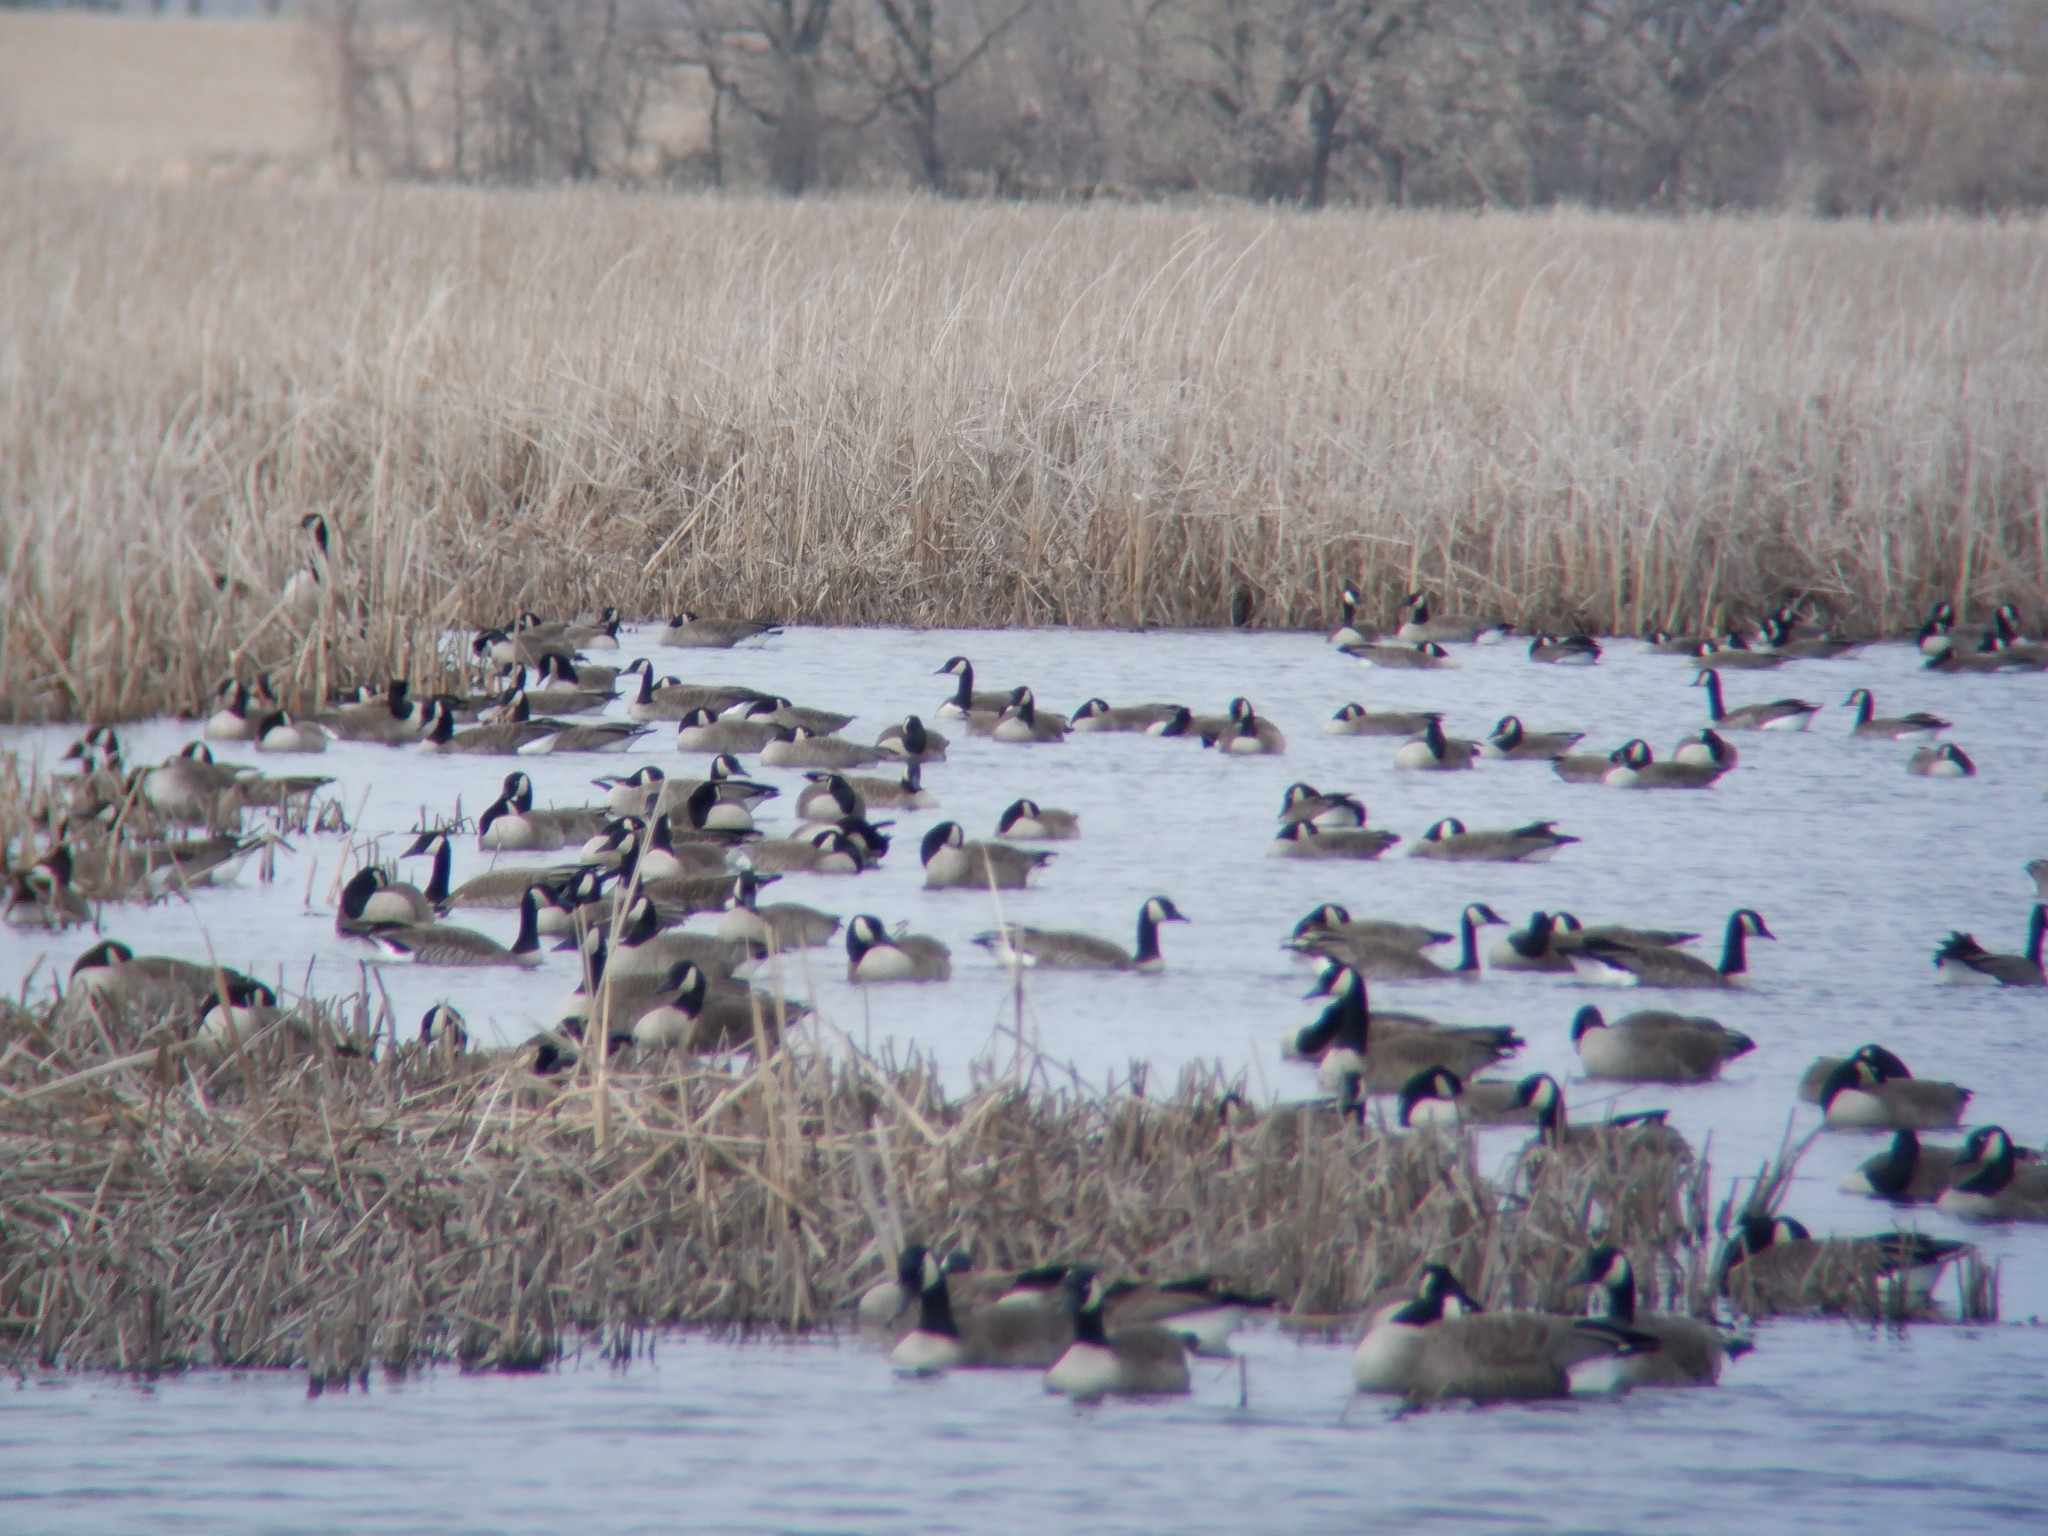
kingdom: Animalia
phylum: Chordata
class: Aves
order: Anseriformes
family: Anatidae
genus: Branta
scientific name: Branta canadensis
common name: Canada goose
